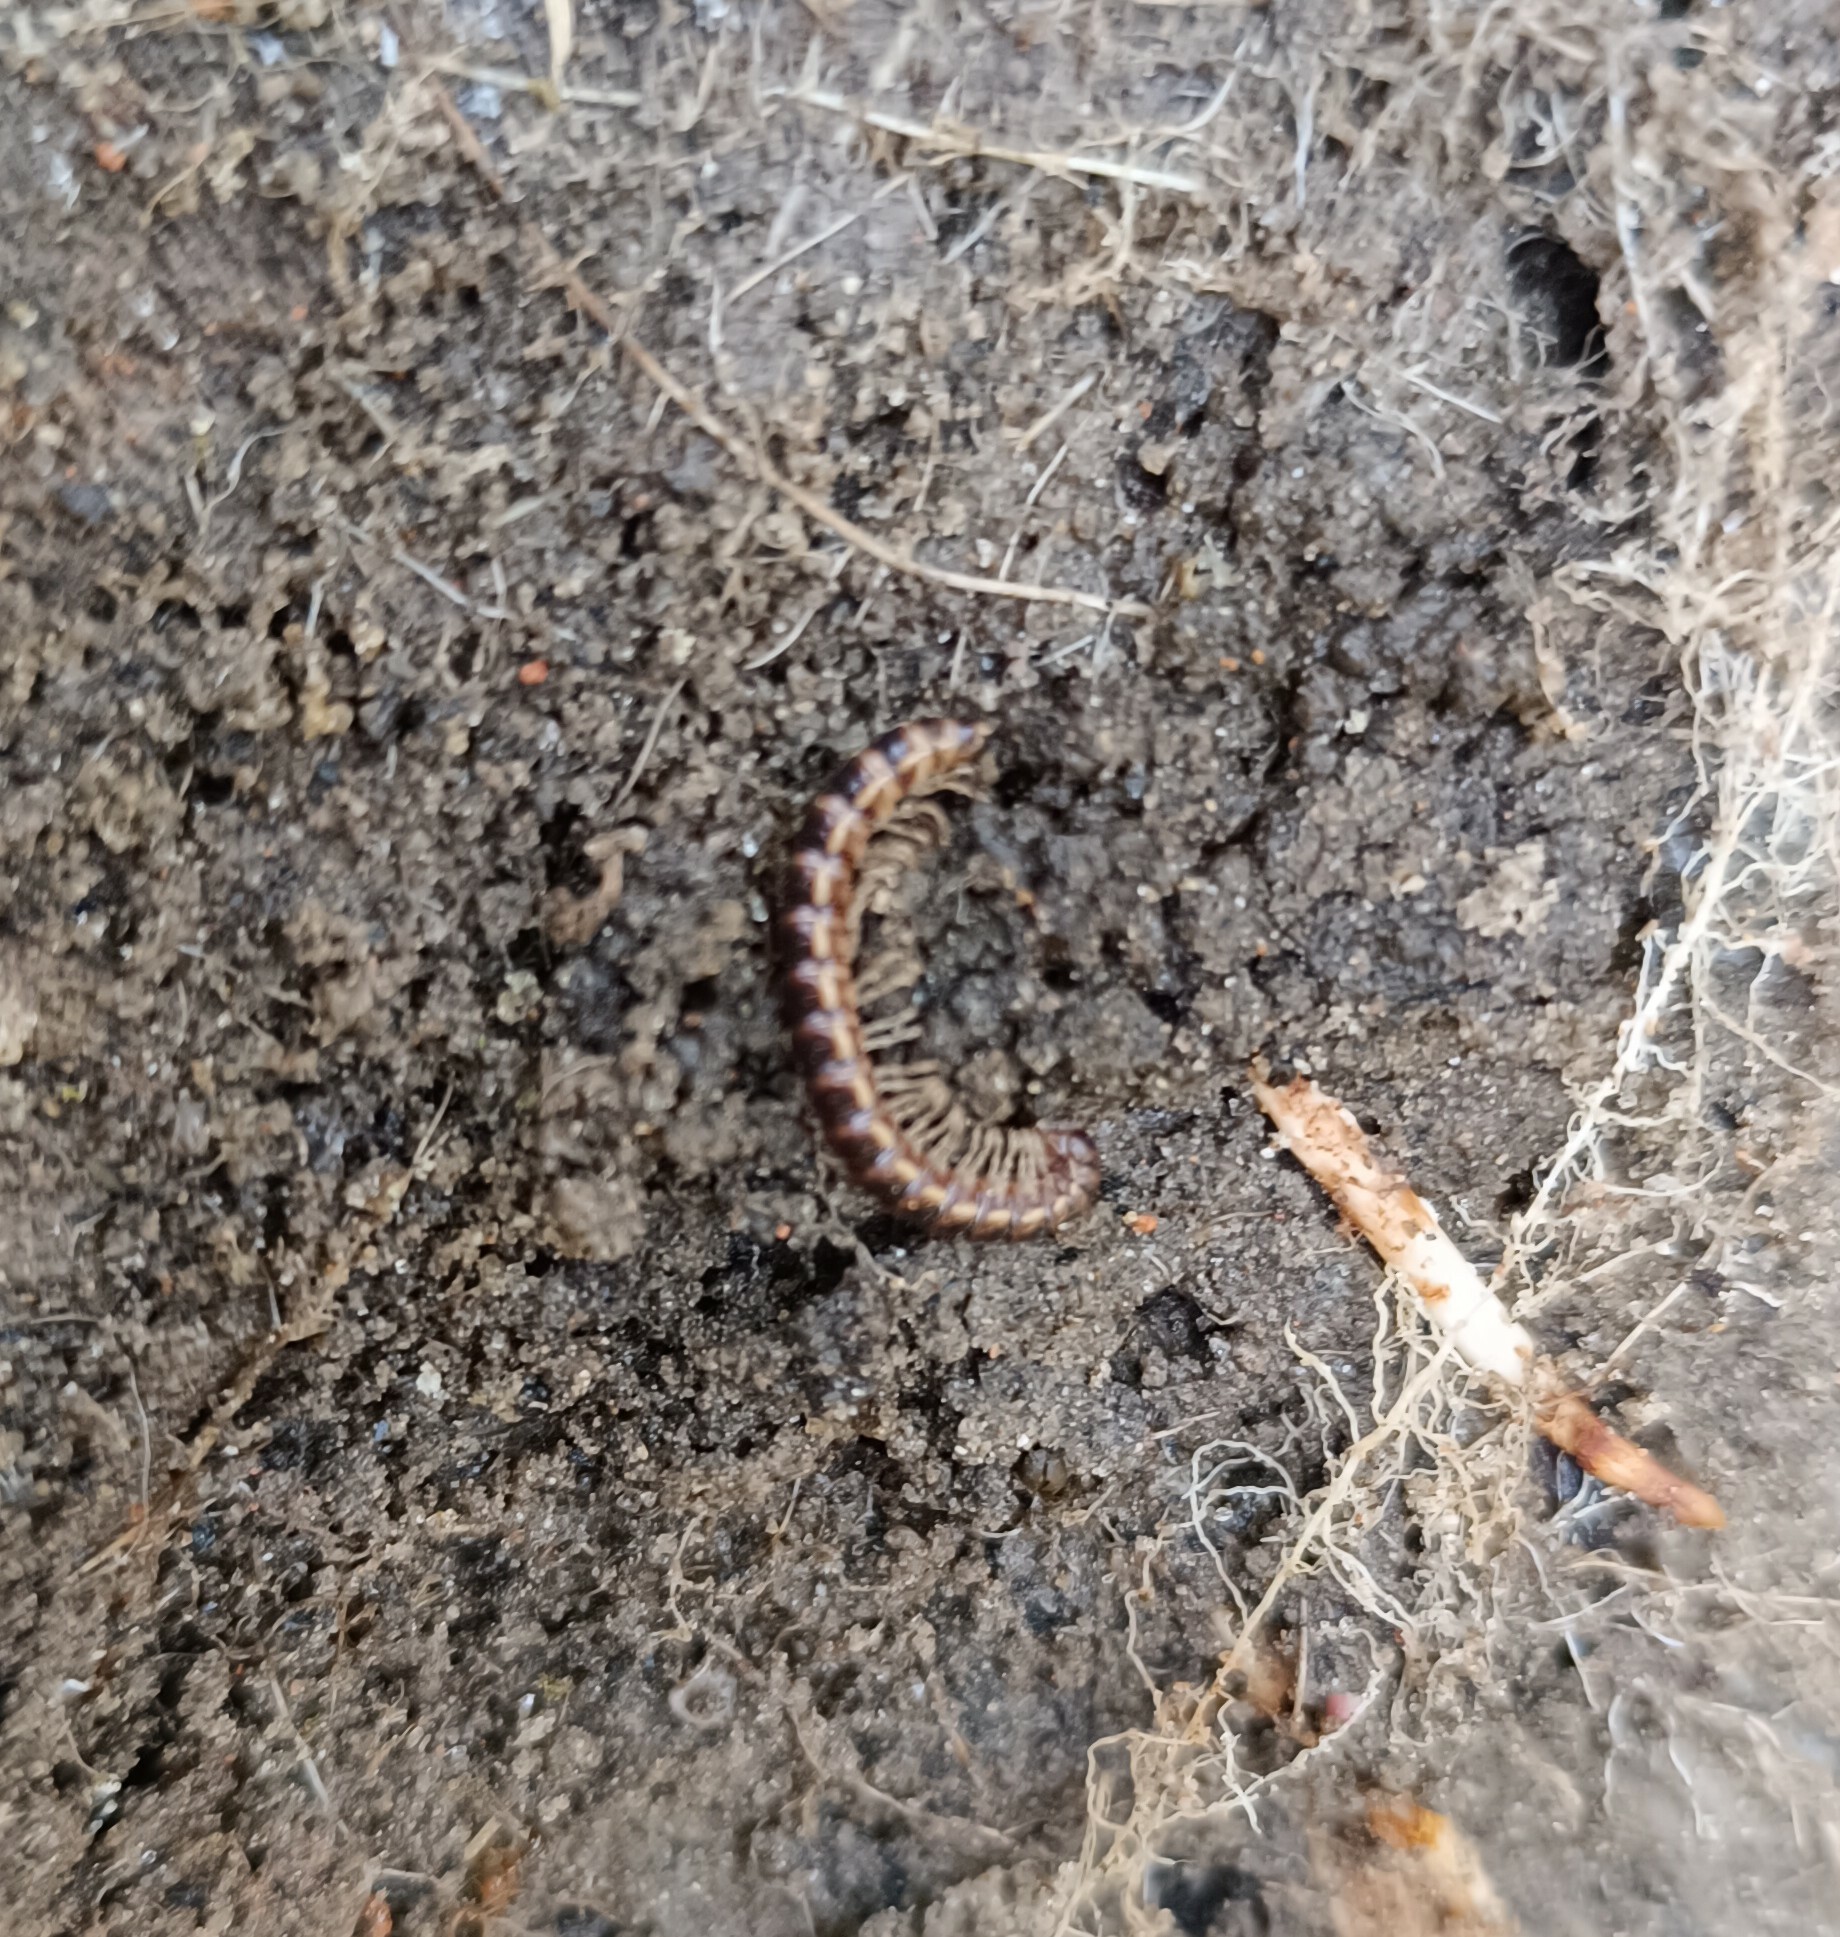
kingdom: Animalia
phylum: Arthropoda
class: Diplopoda
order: Polydesmida
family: Paradoxosomatidae
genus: Oxidus
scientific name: Oxidus gracilis
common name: Greenhouse millipede
